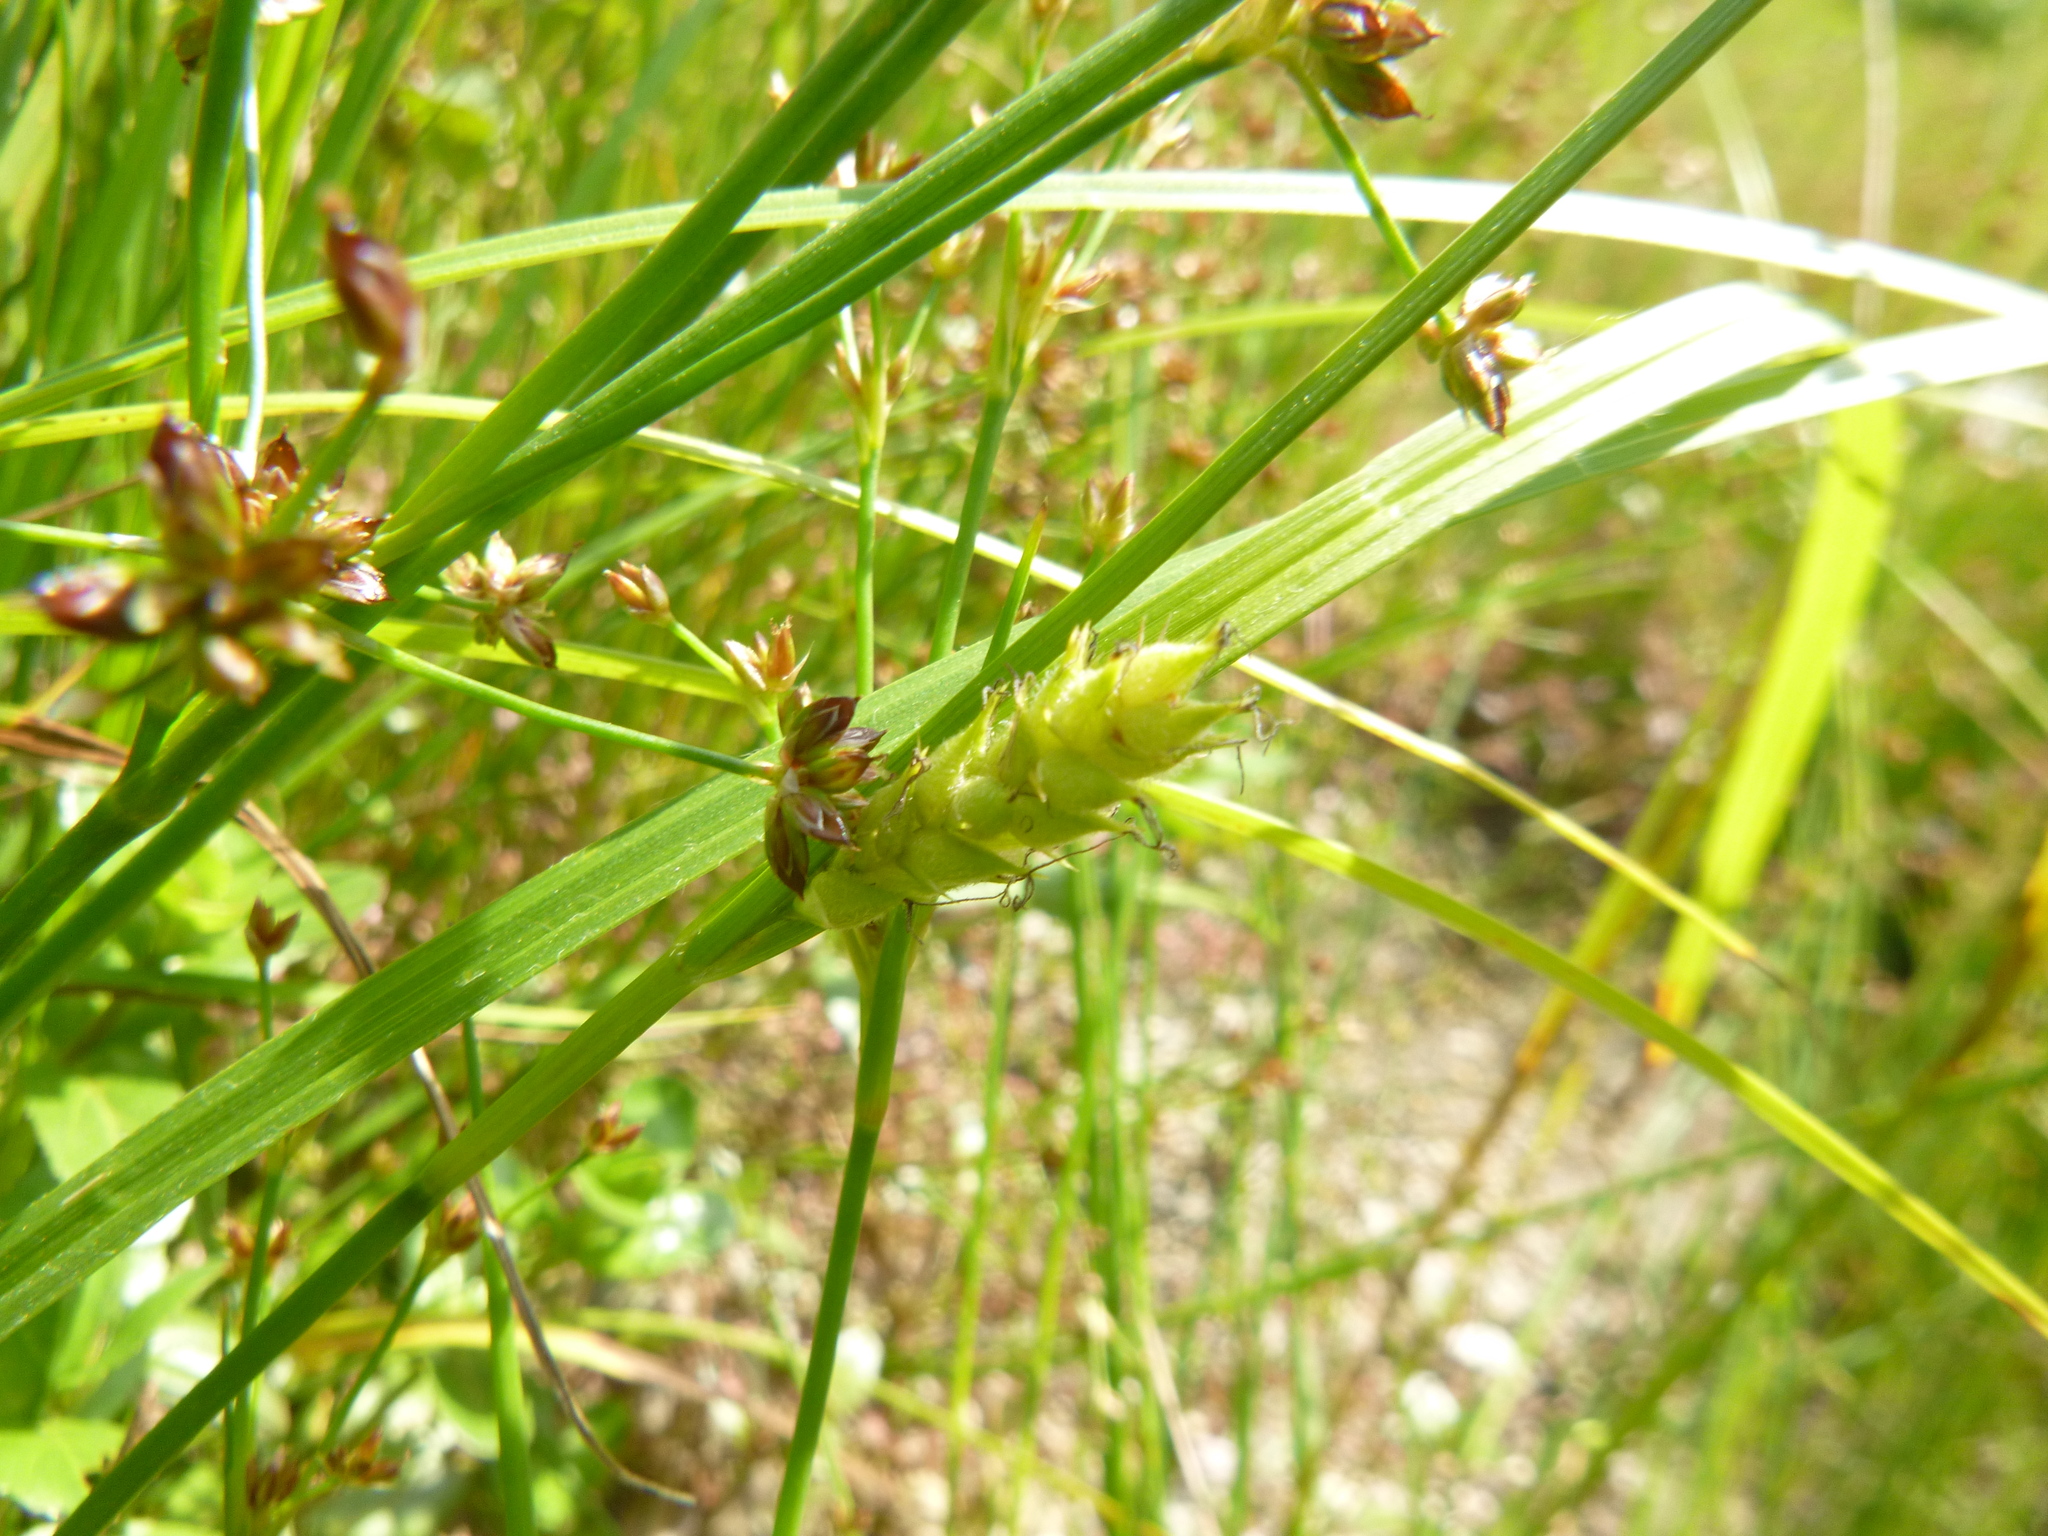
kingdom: Plantae
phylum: Tracheophyta
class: Liliopsida
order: Poales
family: Cyperaceae
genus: Carex
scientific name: Carex hirta
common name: Hairy sedge
